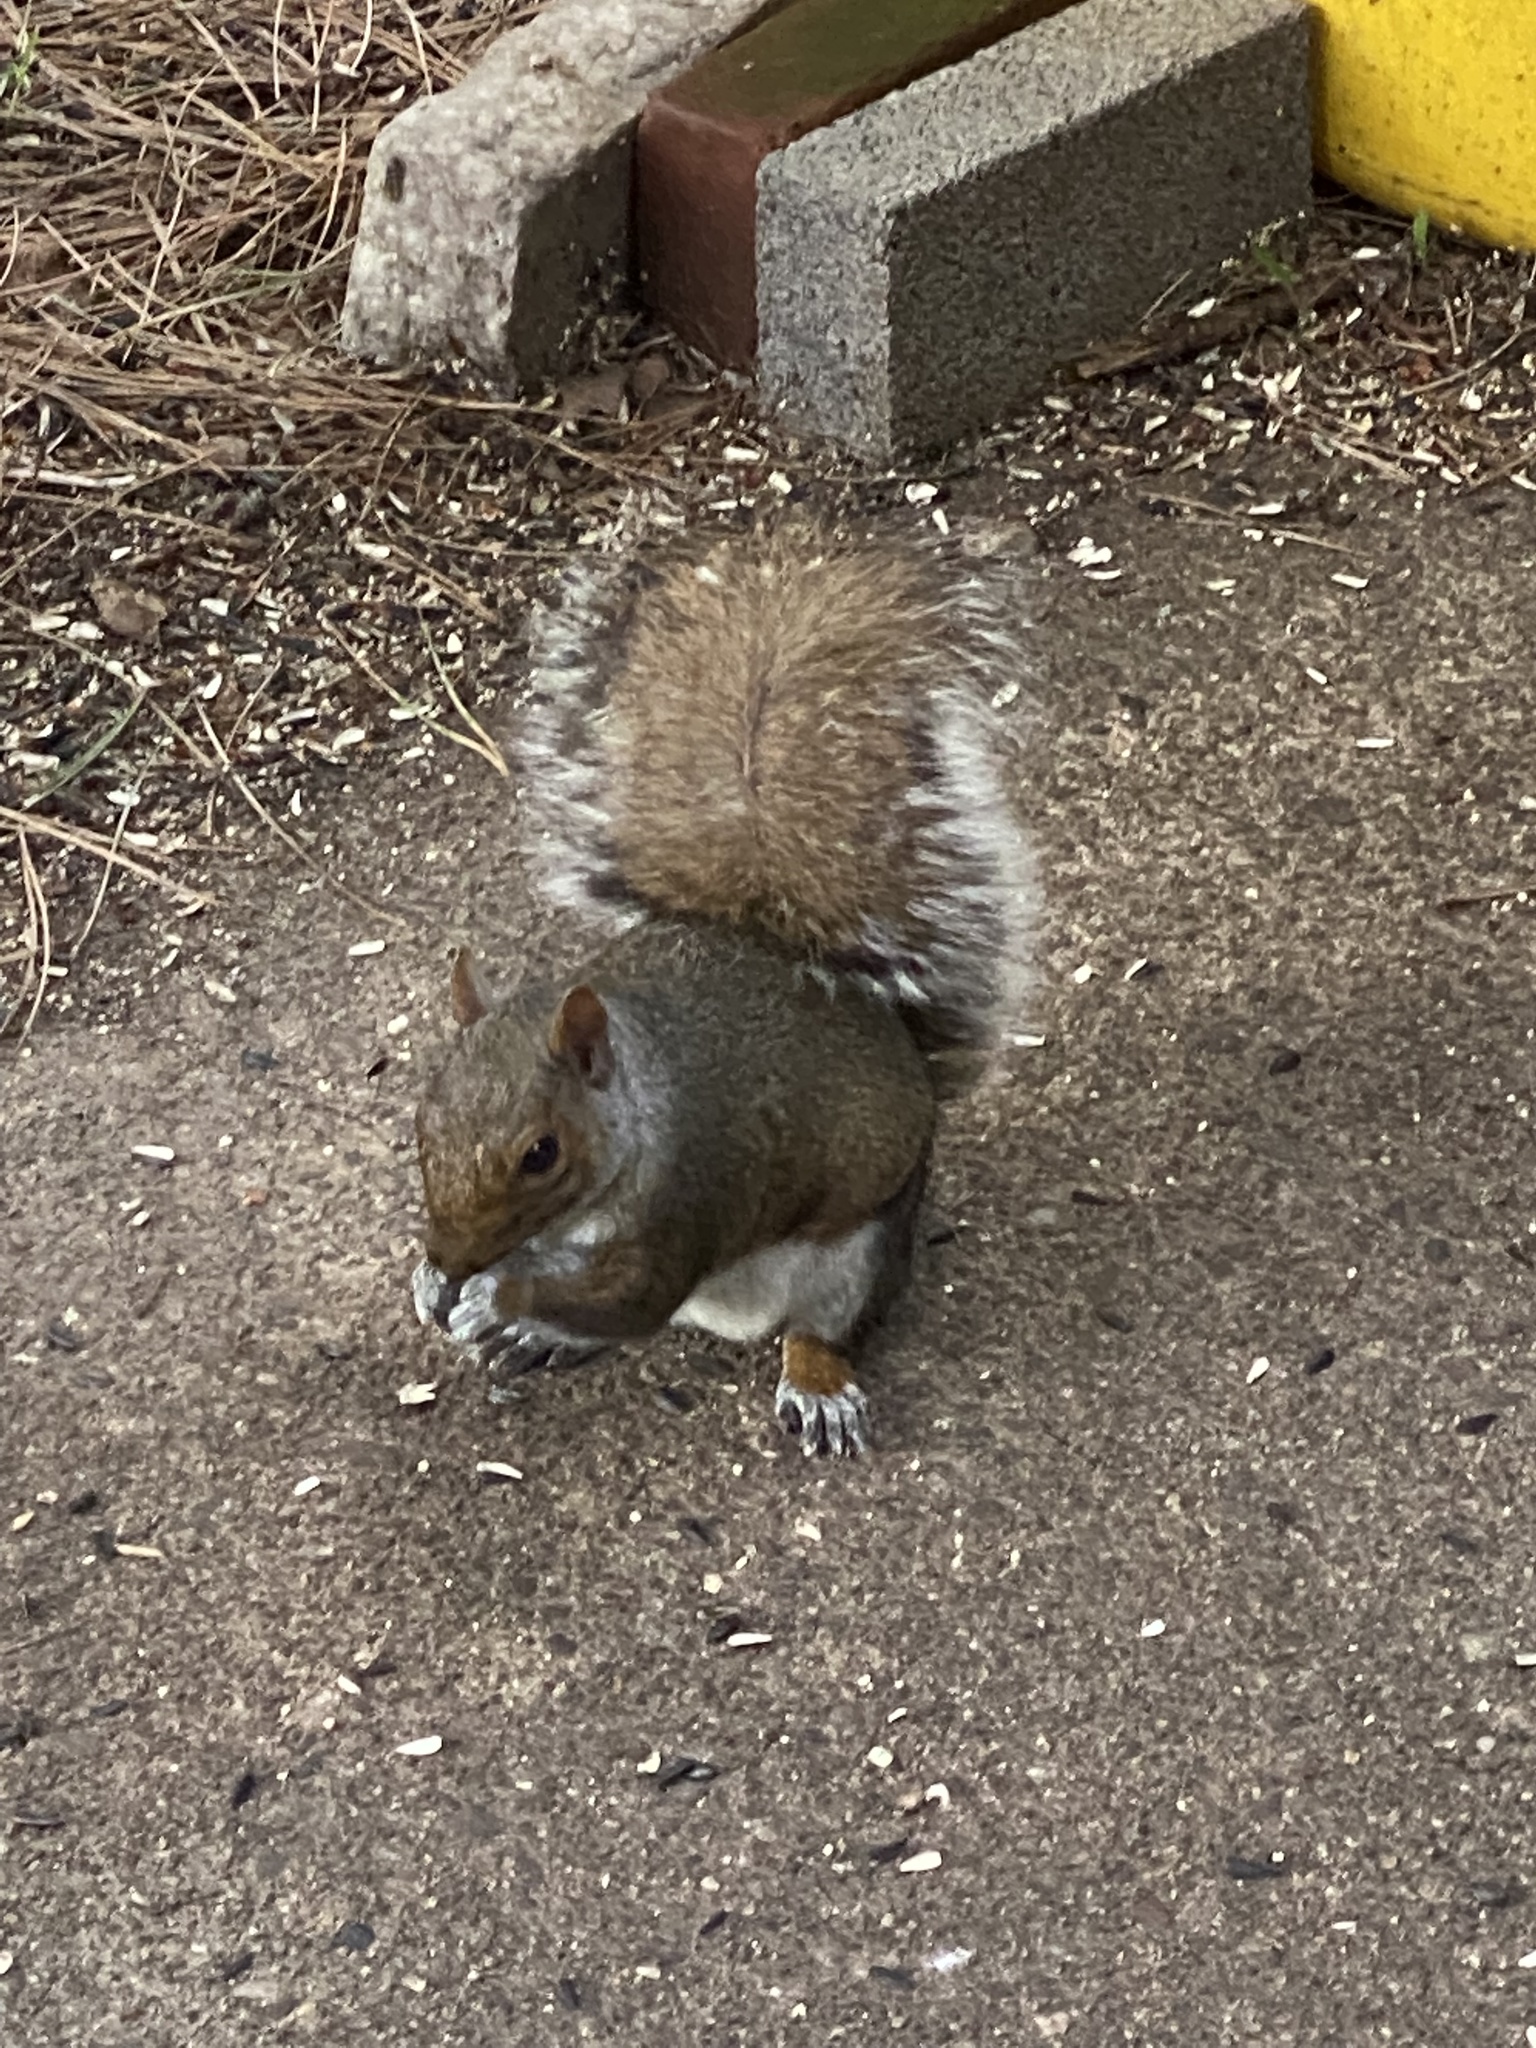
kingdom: Animalia
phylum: Chordata
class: Mammalia
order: Rodentia
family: Sciuridae
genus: Sciurus
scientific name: Sciurus carolinensis
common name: Eastern gray squirrel
